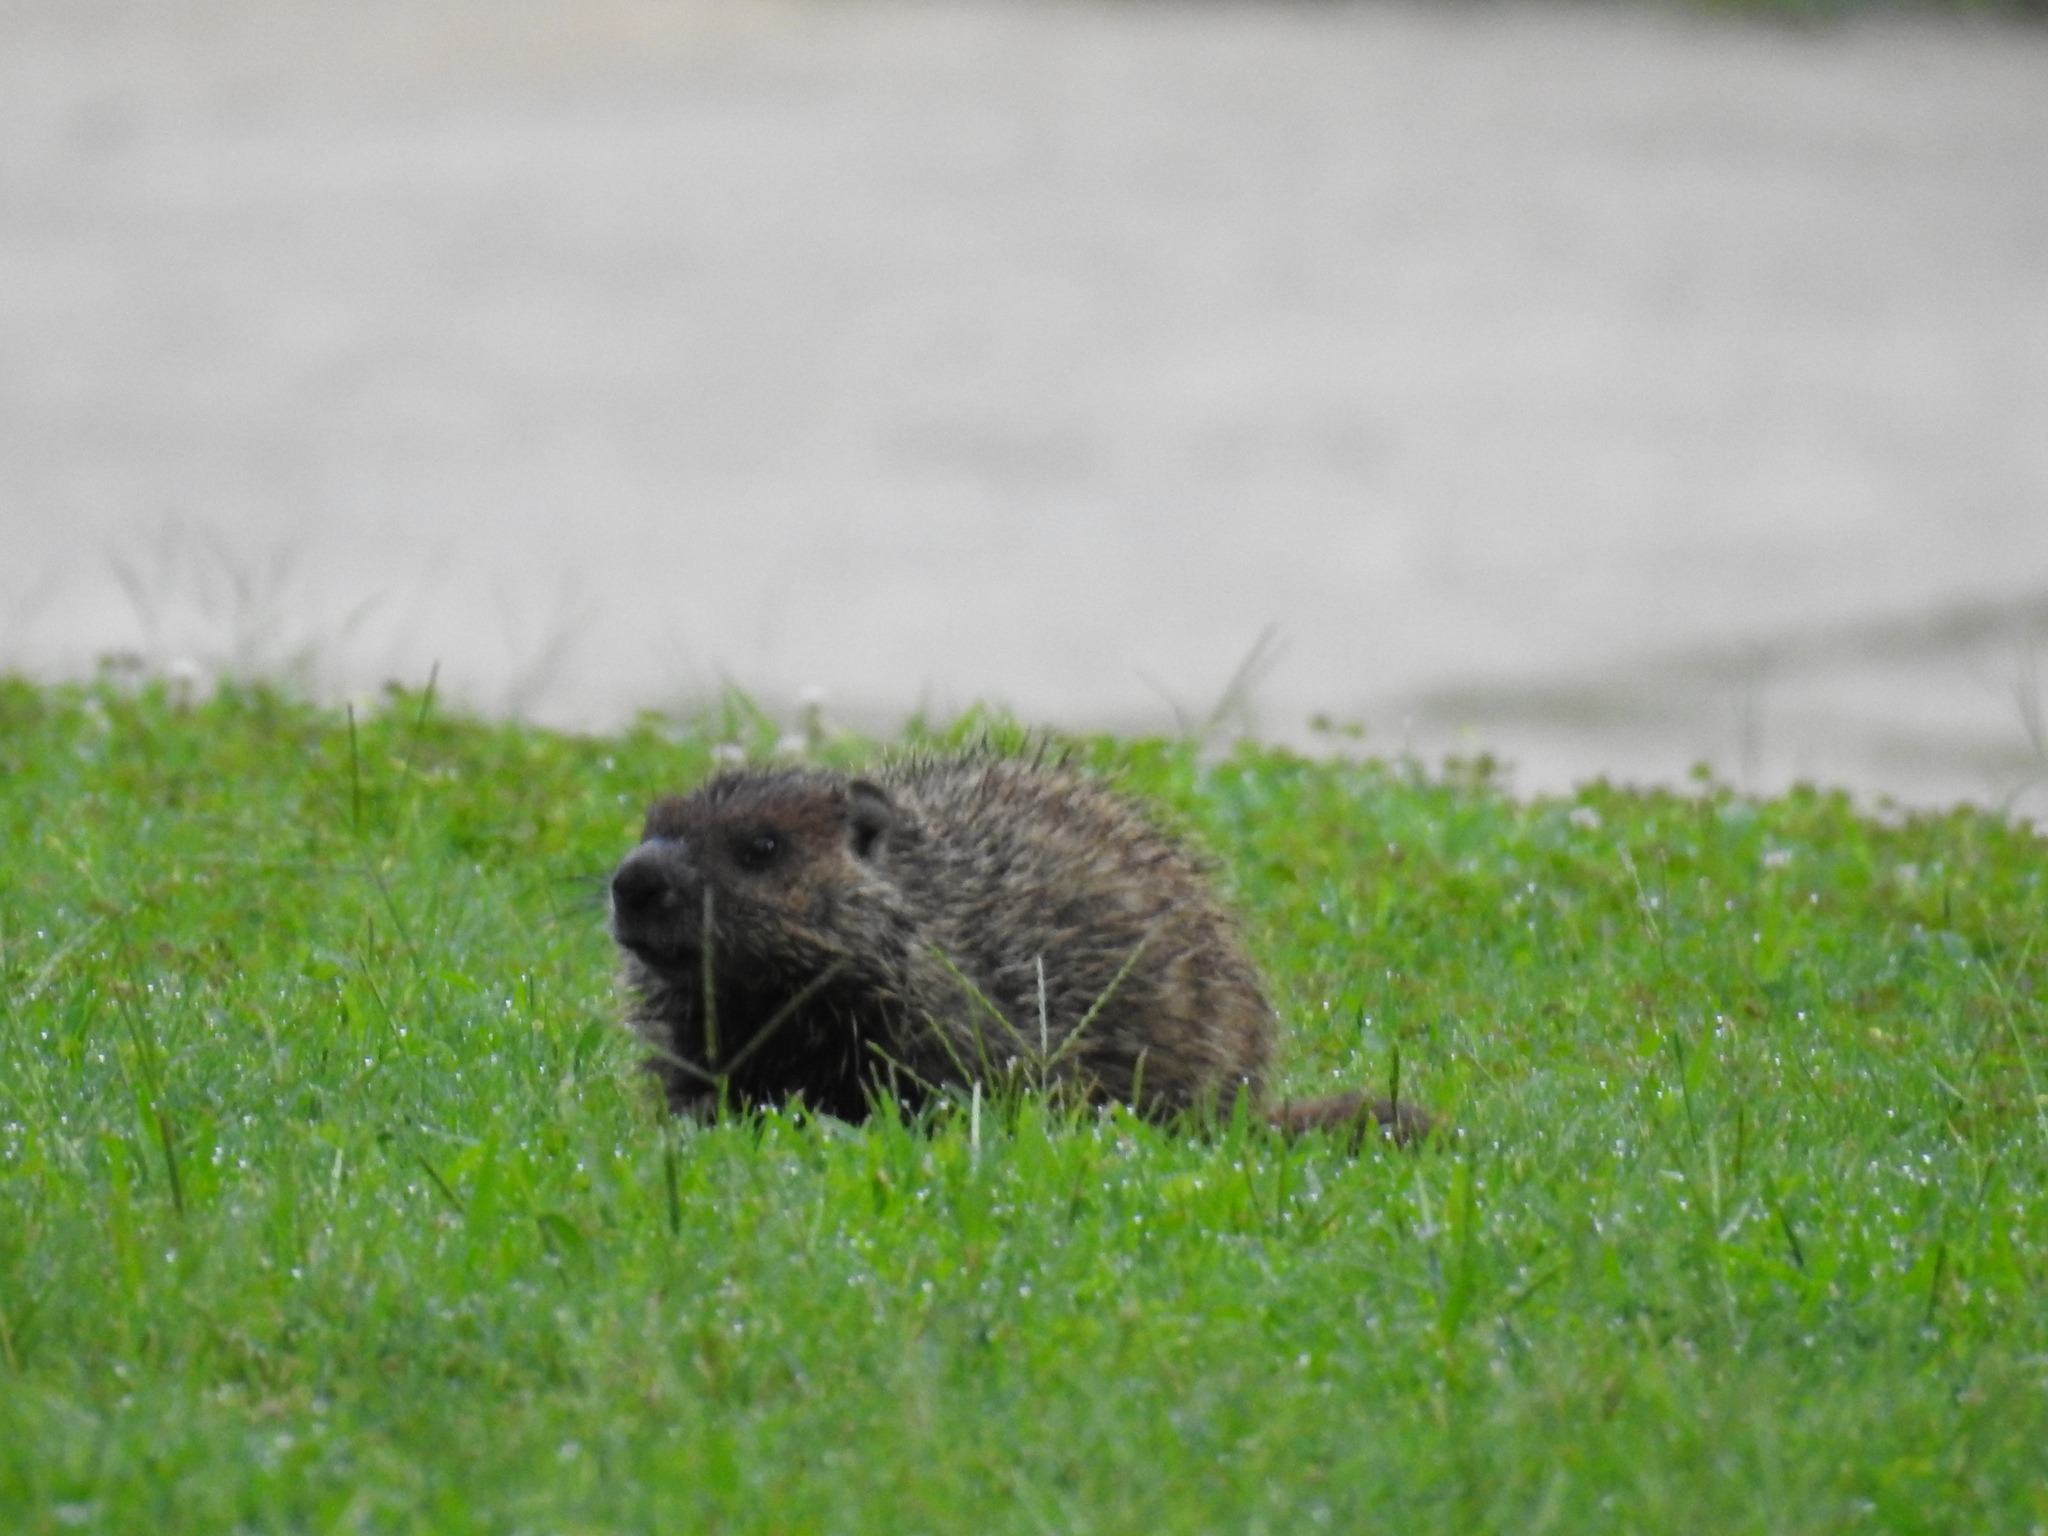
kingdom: Animalia
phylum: Chordata
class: Mammalia
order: Rodentia
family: Sciuridae
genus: Marmota
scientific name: Marmota monax
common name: Groundhog
